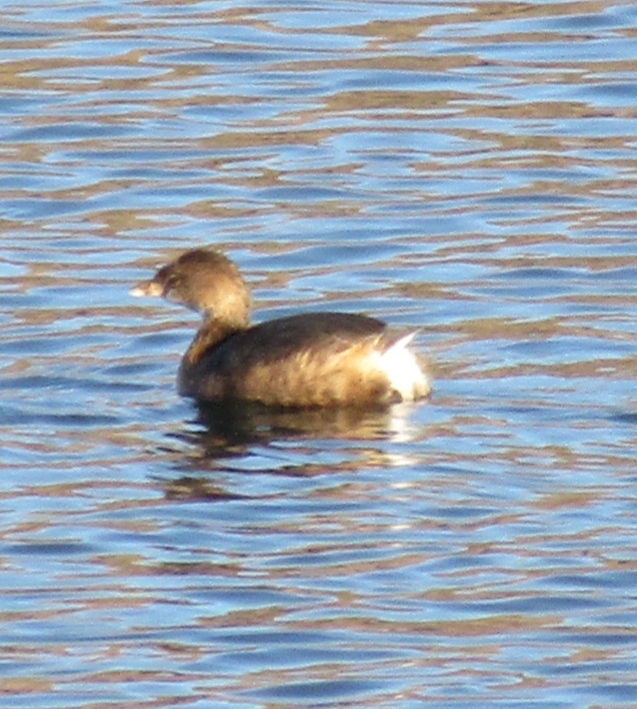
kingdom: Animalia
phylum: Chordata
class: Aves
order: Podicipediformes
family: Podicipedidae
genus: Podilymbus
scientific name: Podilymbus podiceps
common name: Pied-billed grebe
